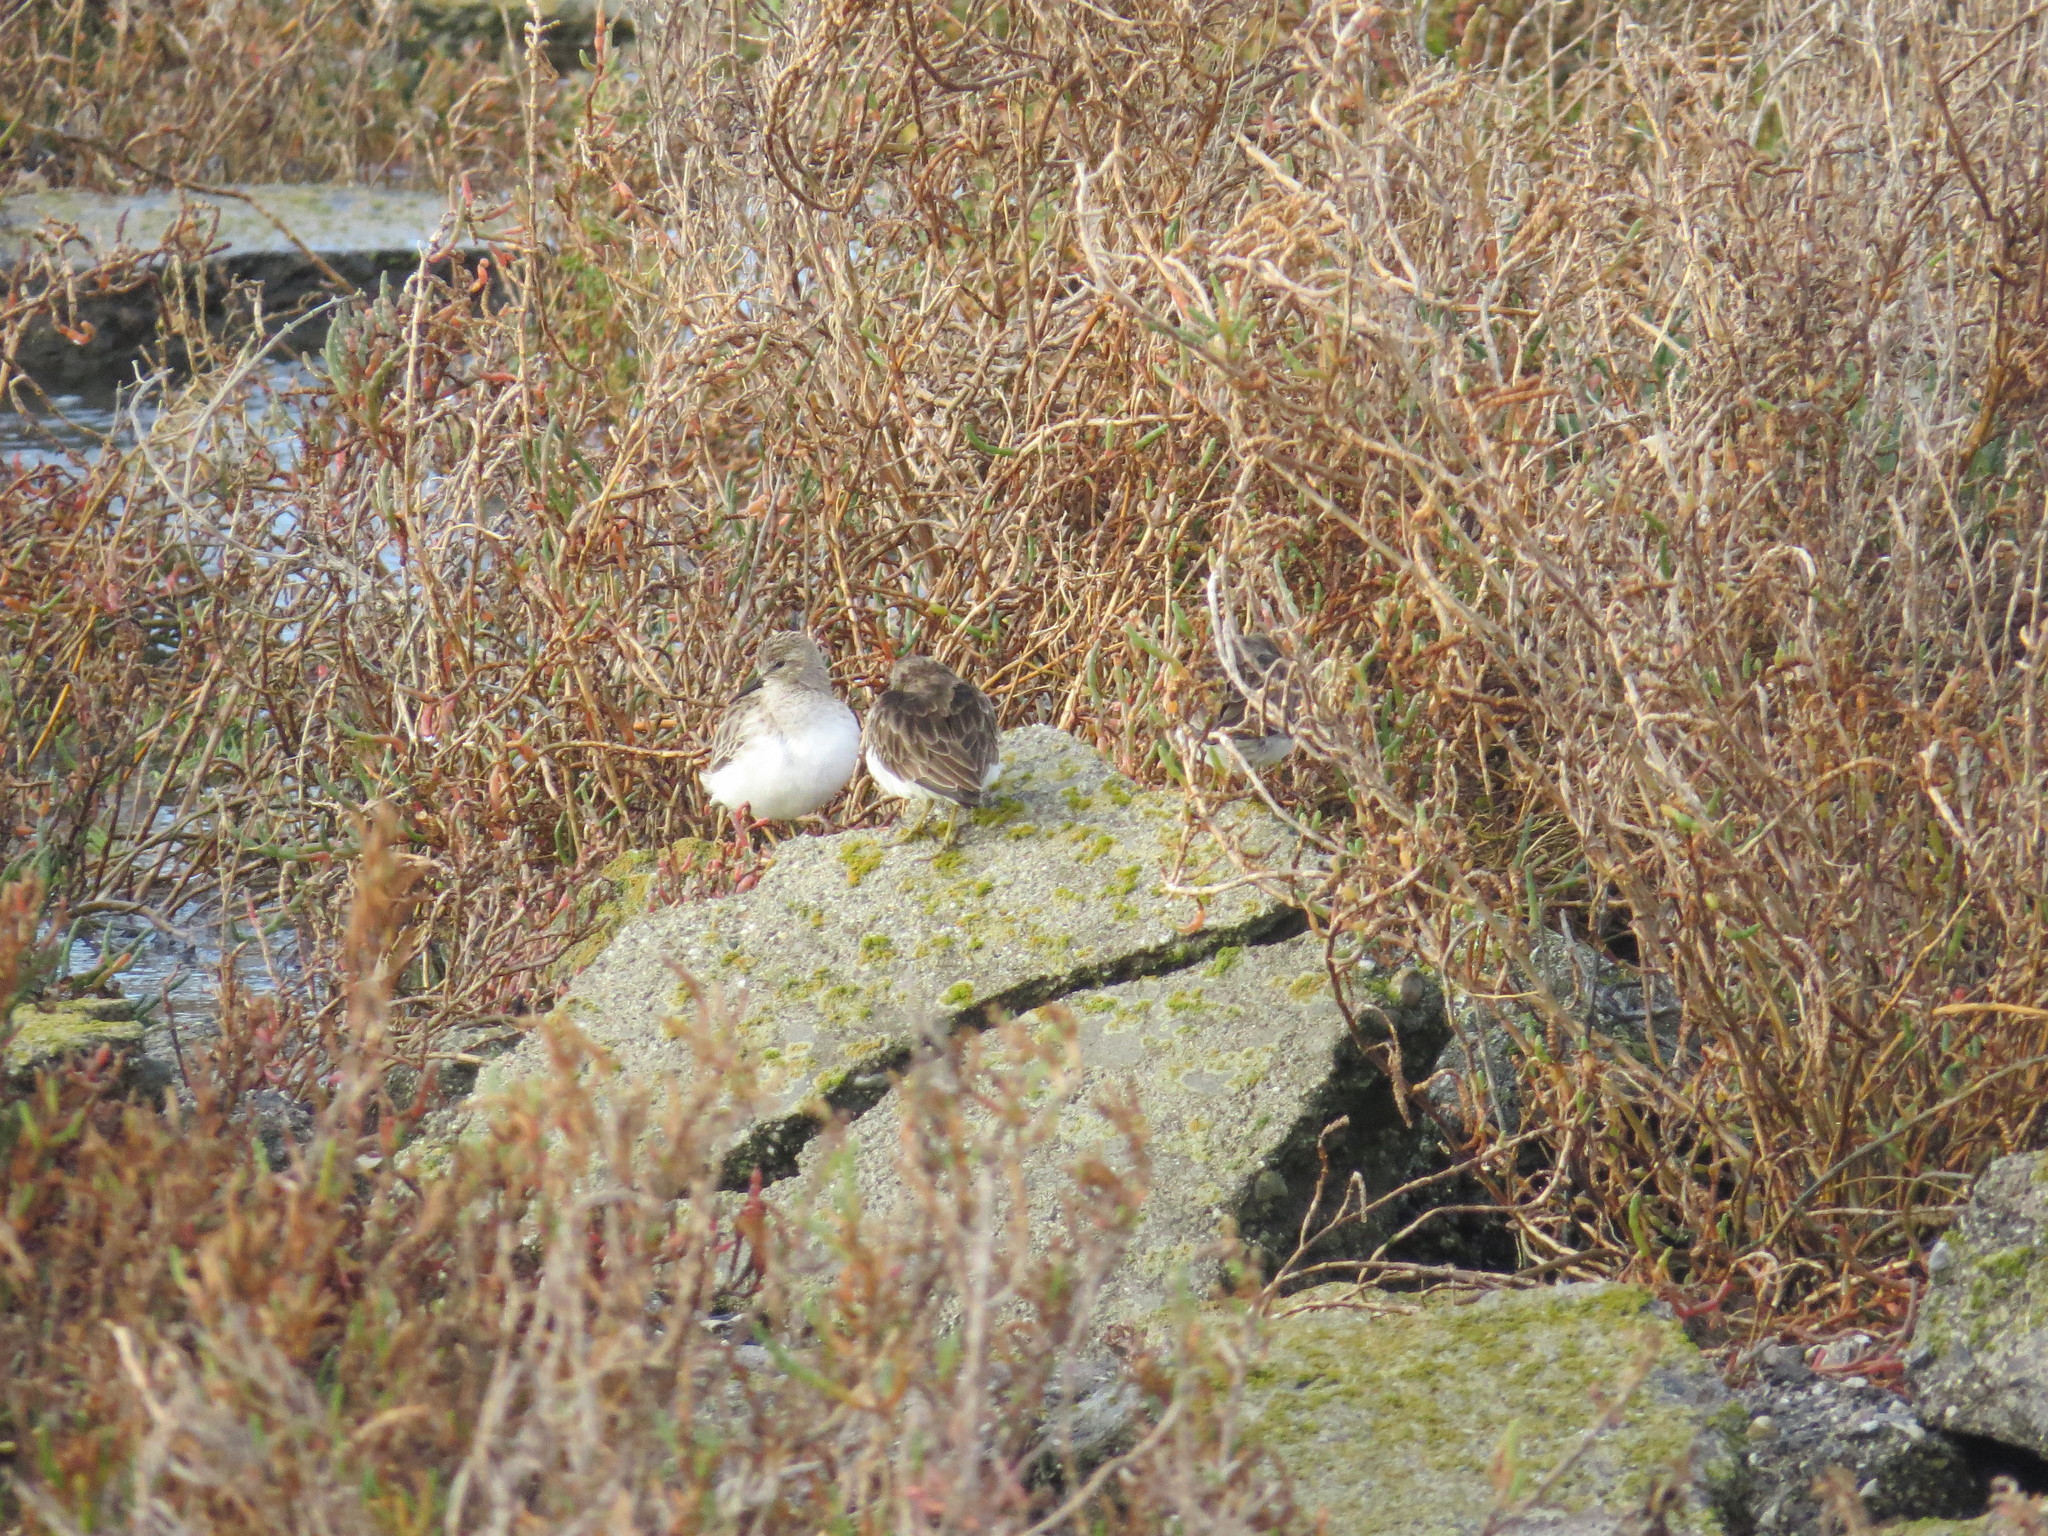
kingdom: Animalia
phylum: Chordata
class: Aves
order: Charadriiformes
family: Scolopacidae
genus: Calidris
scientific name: Calidris minutilla
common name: Least sandpiper
